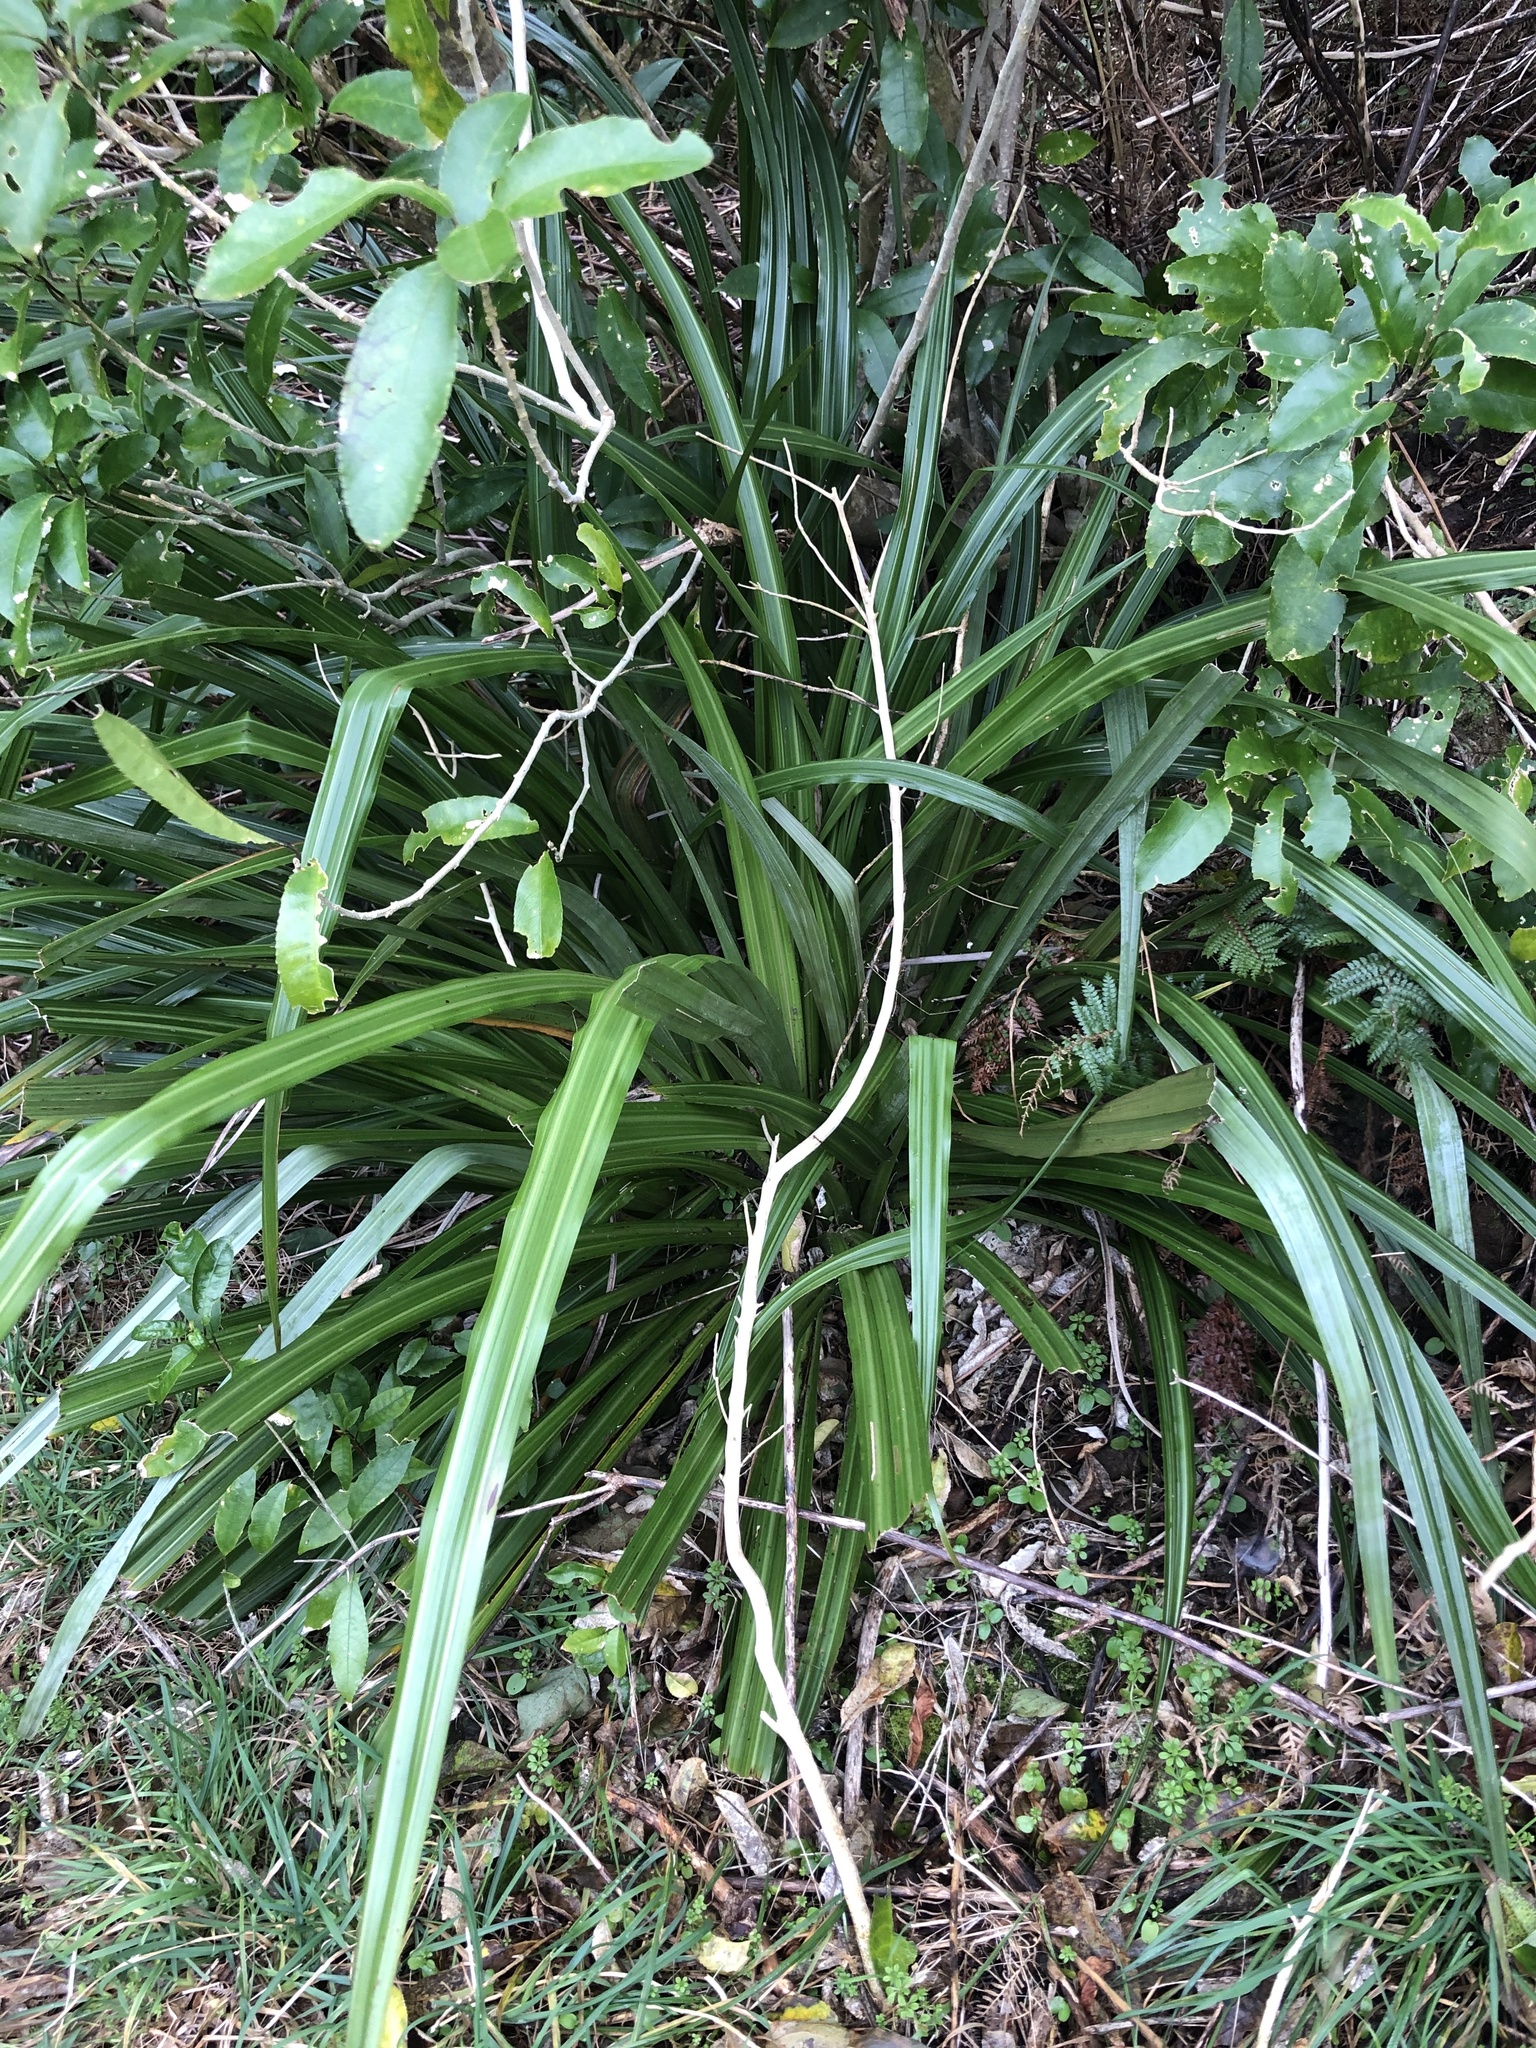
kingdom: Plantae
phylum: Tracheophyta
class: Liliopsida
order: Asparagales
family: Asteliaceae
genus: Astelia
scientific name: Astelia fragrans
